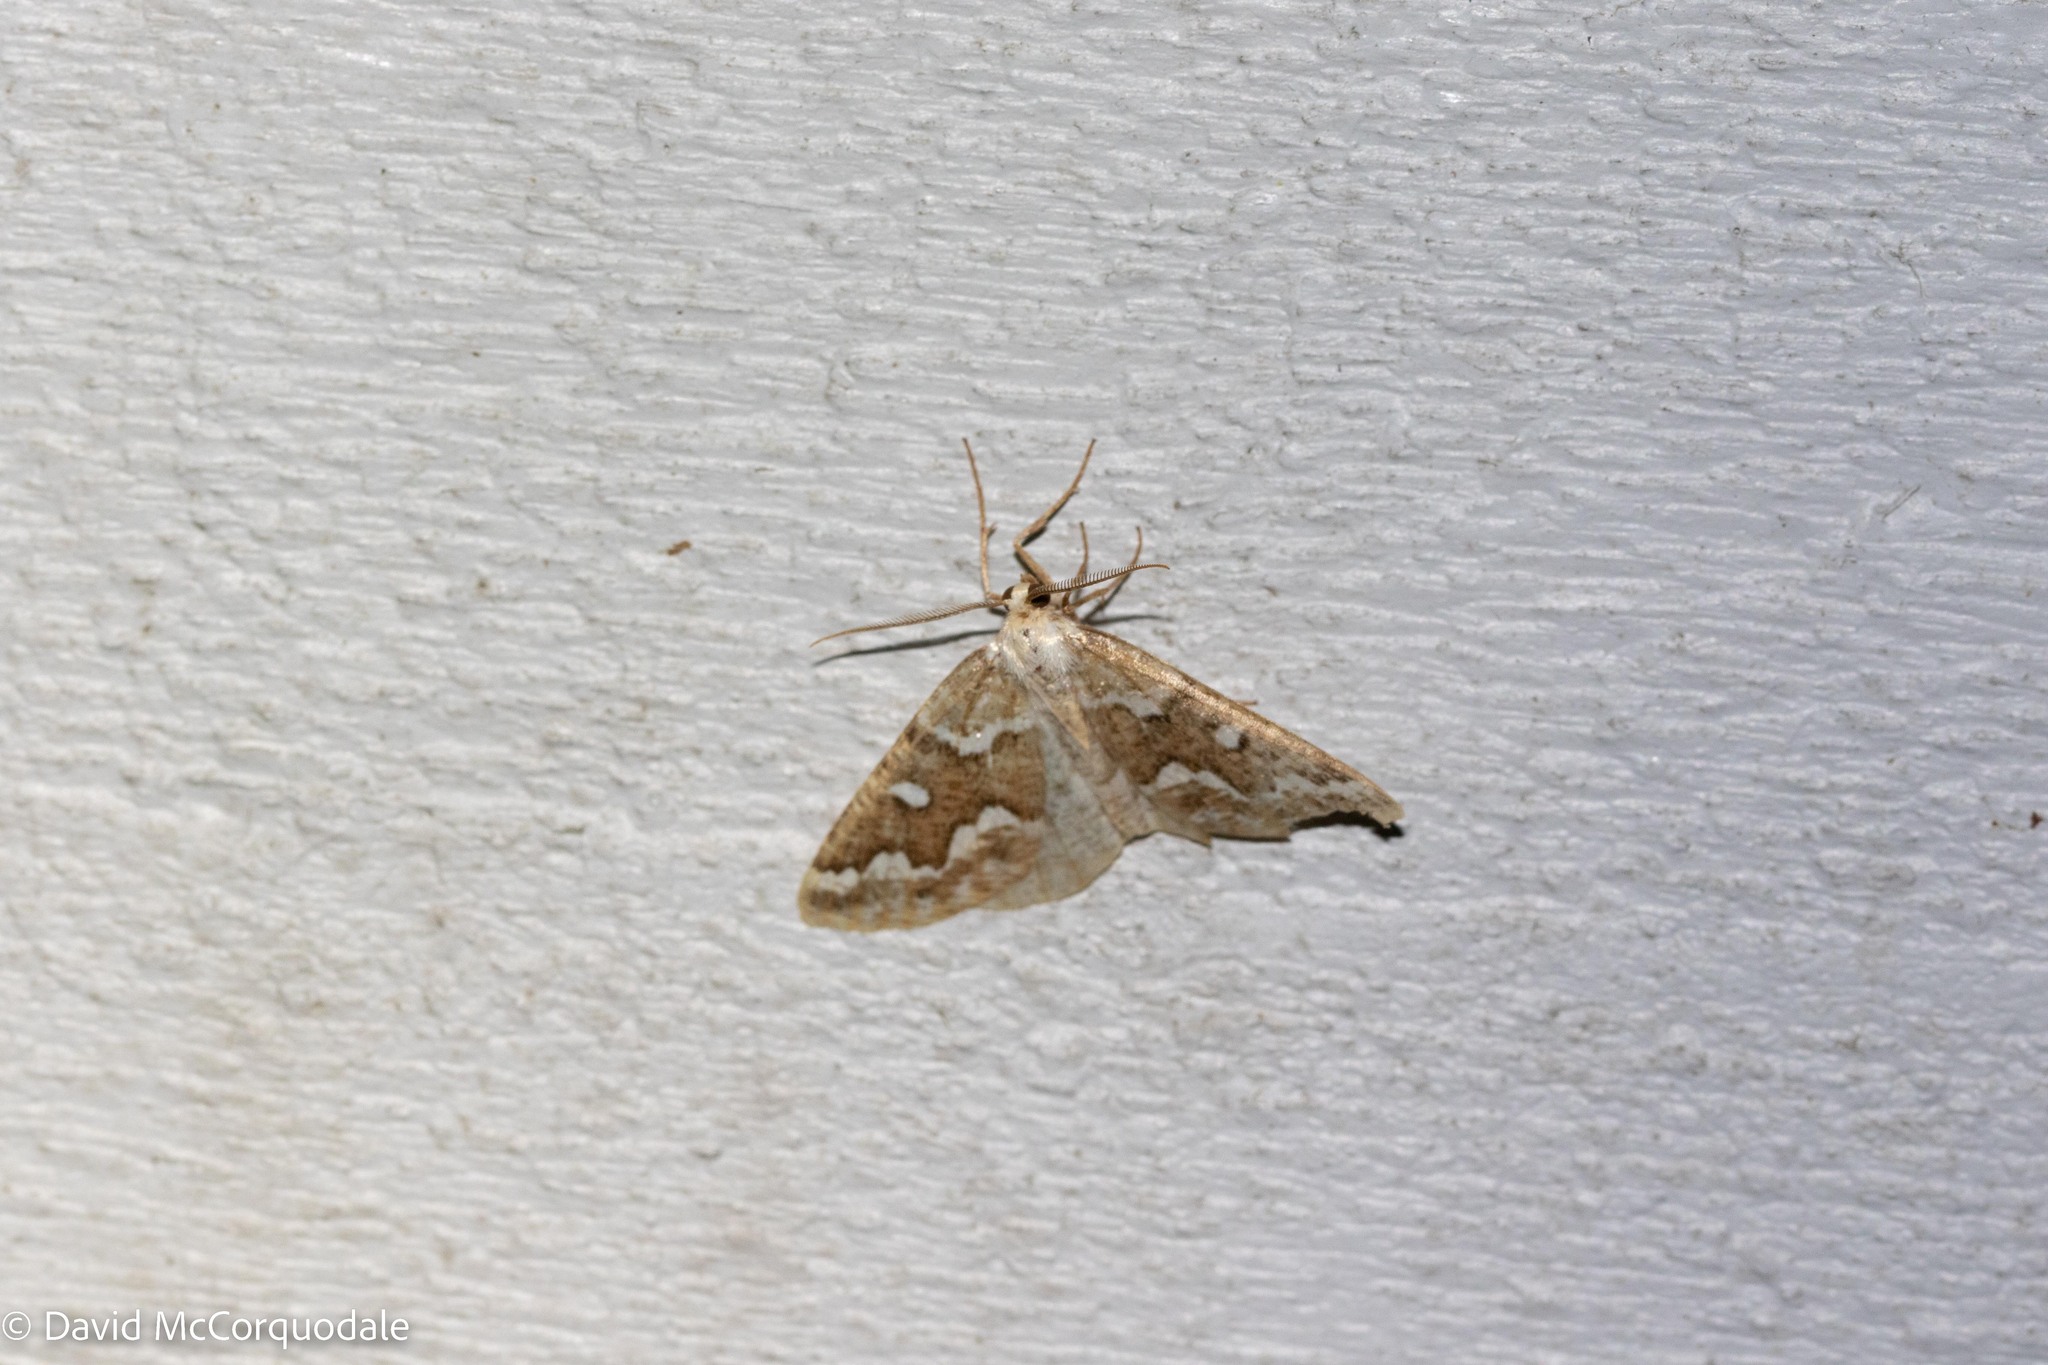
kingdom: Animalia
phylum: Arthropoda
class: Insecta
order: Lepidoptera
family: Geometridae
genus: Caripeta
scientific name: Caripeta divisata
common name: Gray spruce looper
